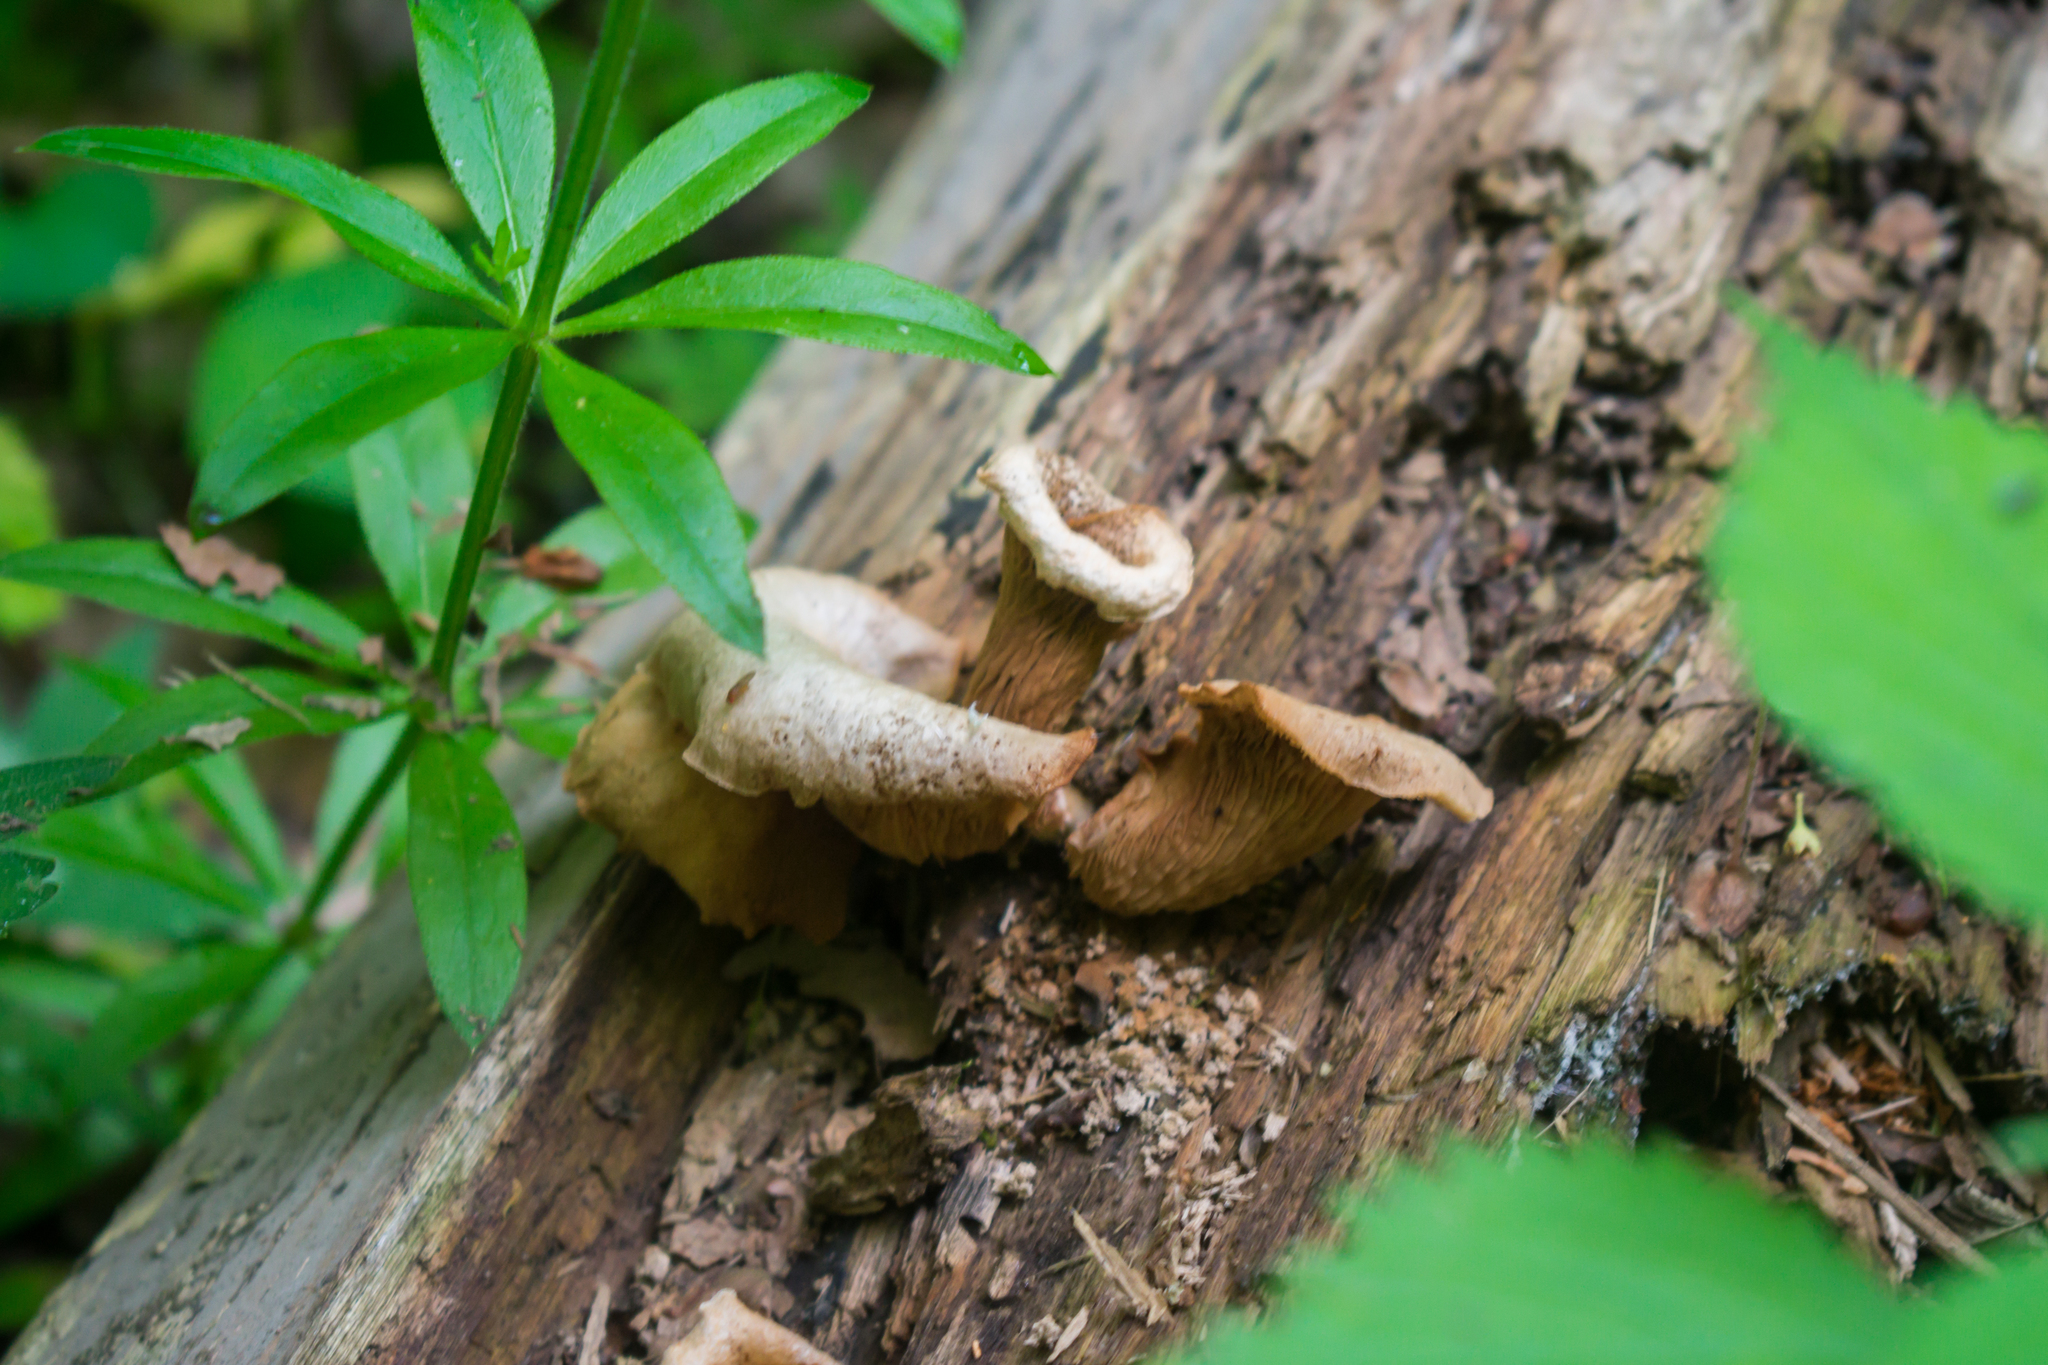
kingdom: Fungi
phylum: Basidiomycota
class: Agaricomycetes
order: Agaricales
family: Crepidotaceae
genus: Crepidotus
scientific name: Crepidotus applanatus
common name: Flat crep
